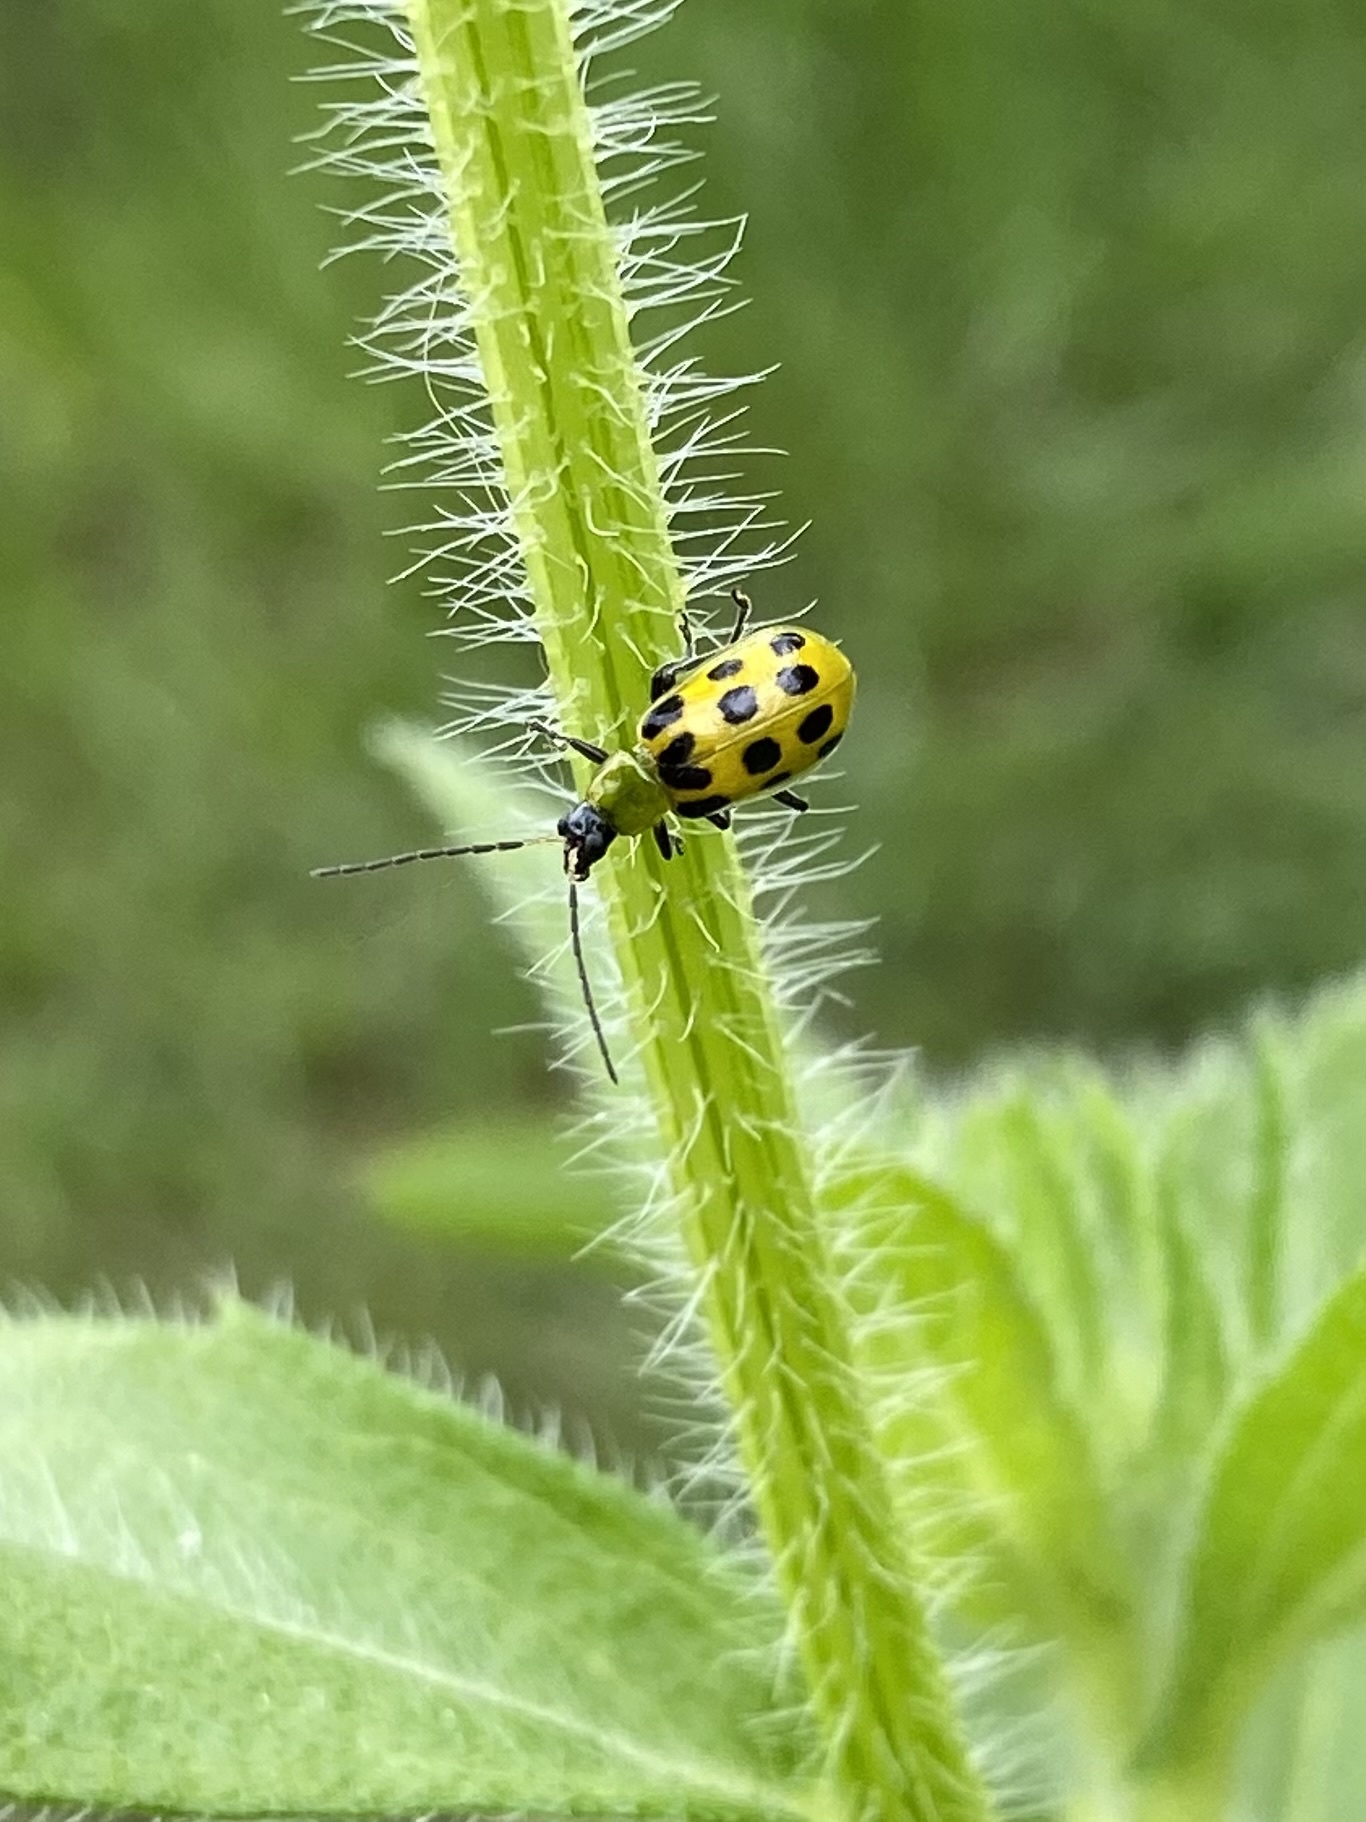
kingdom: Animalia
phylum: Arthropoda
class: Insecta
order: Coleoptera
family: Chrysomelidae
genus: Diabrotica
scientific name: Diabrotica undecimpunctata
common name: Spotted cucumber beetle
